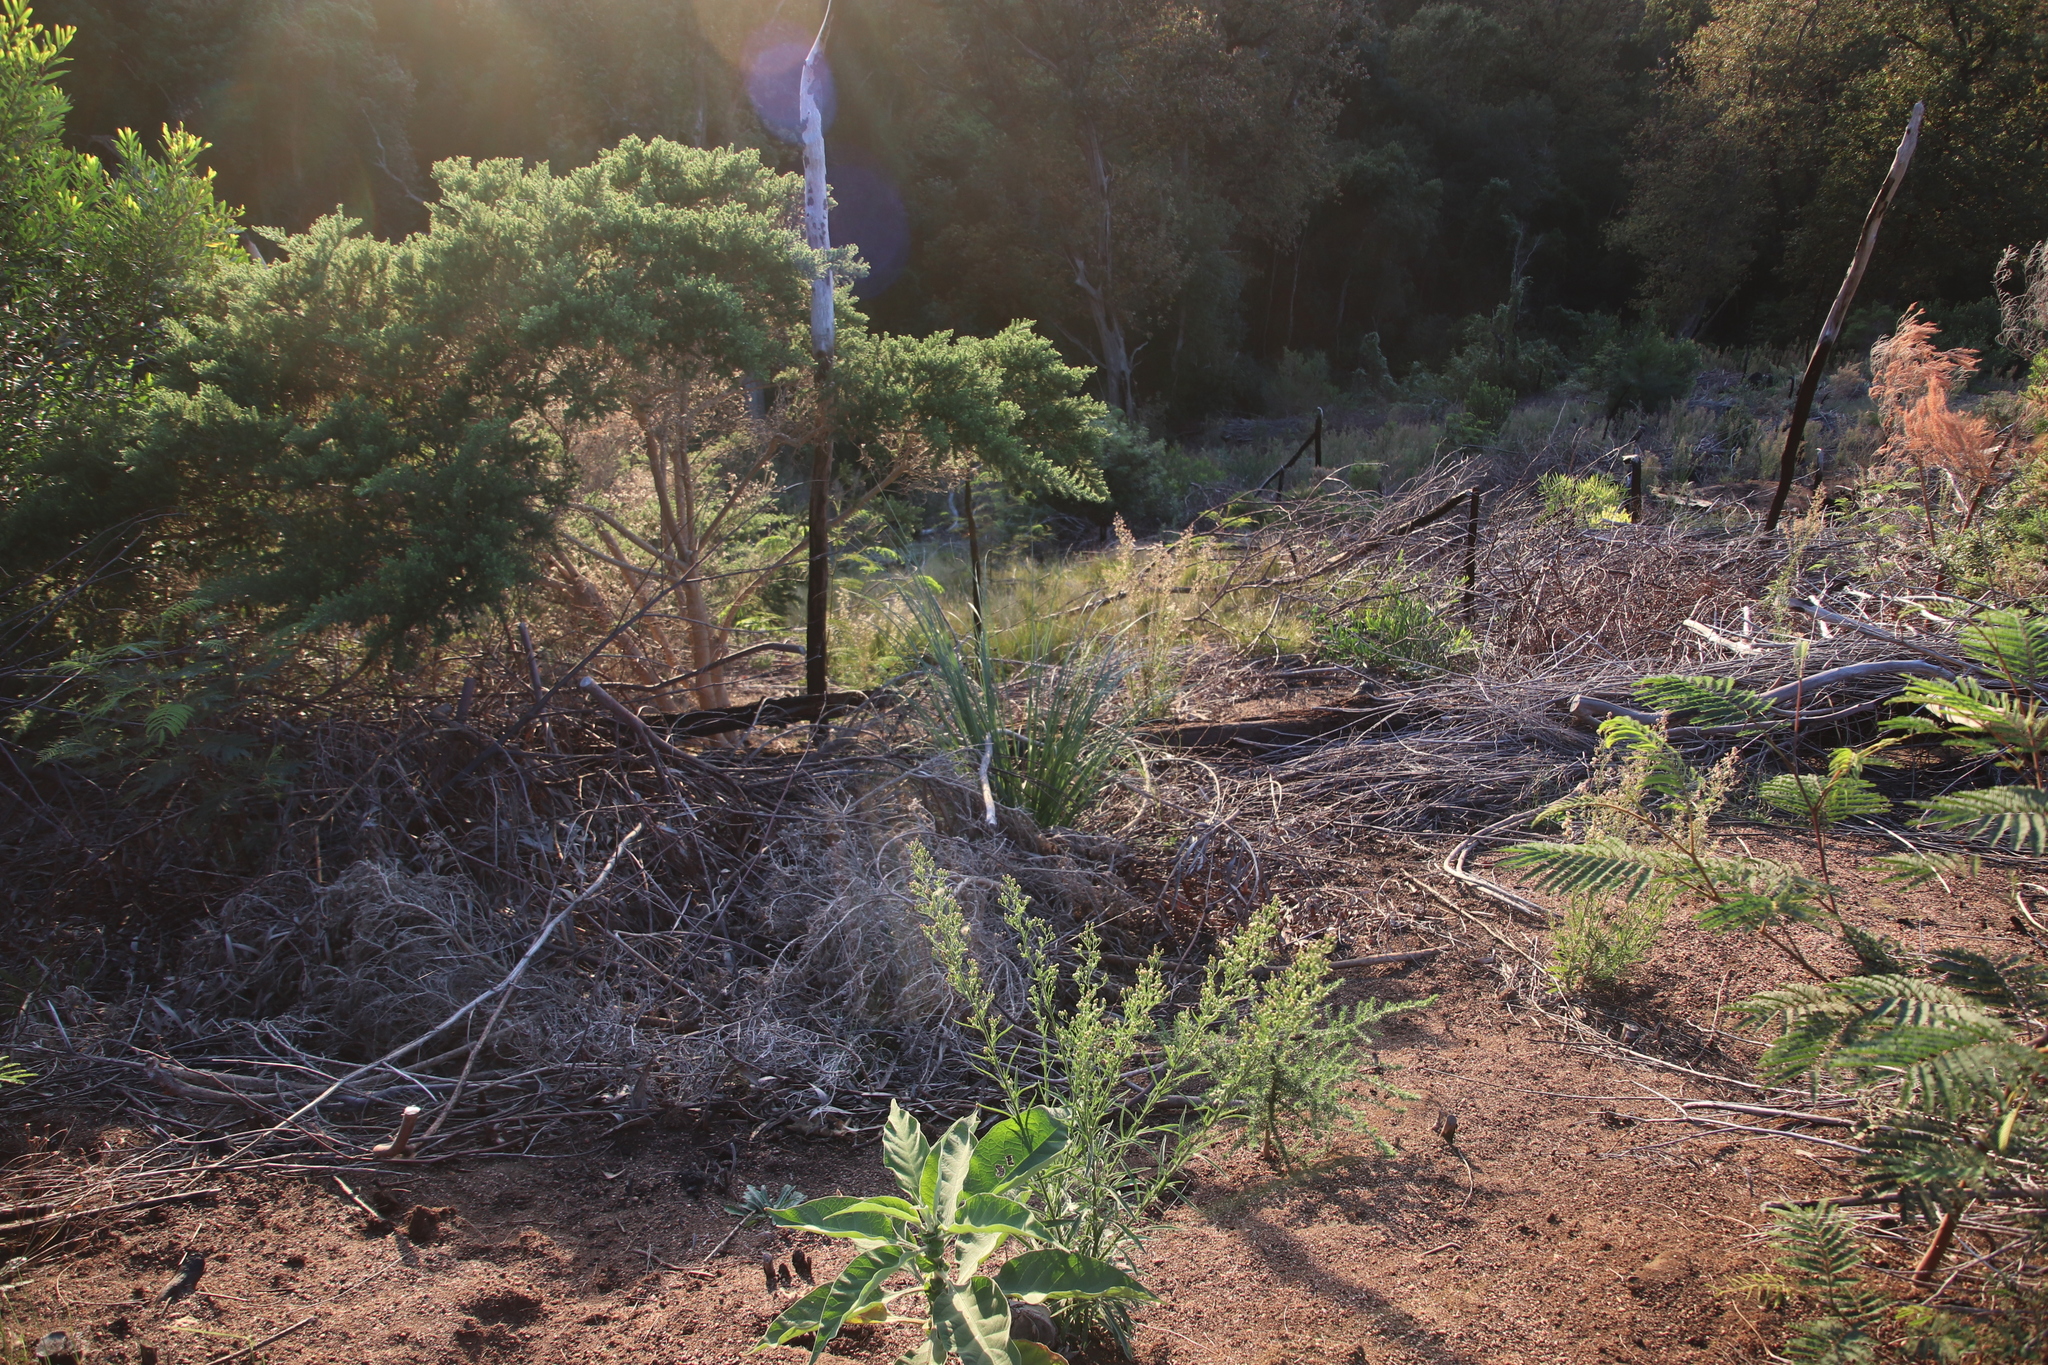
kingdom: Plantae
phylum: Tracheophyta
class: Liliopsida
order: Poales
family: Poaceae
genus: Cortaderia
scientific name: Cortaderia selloana
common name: Uruguayan pampas grass
